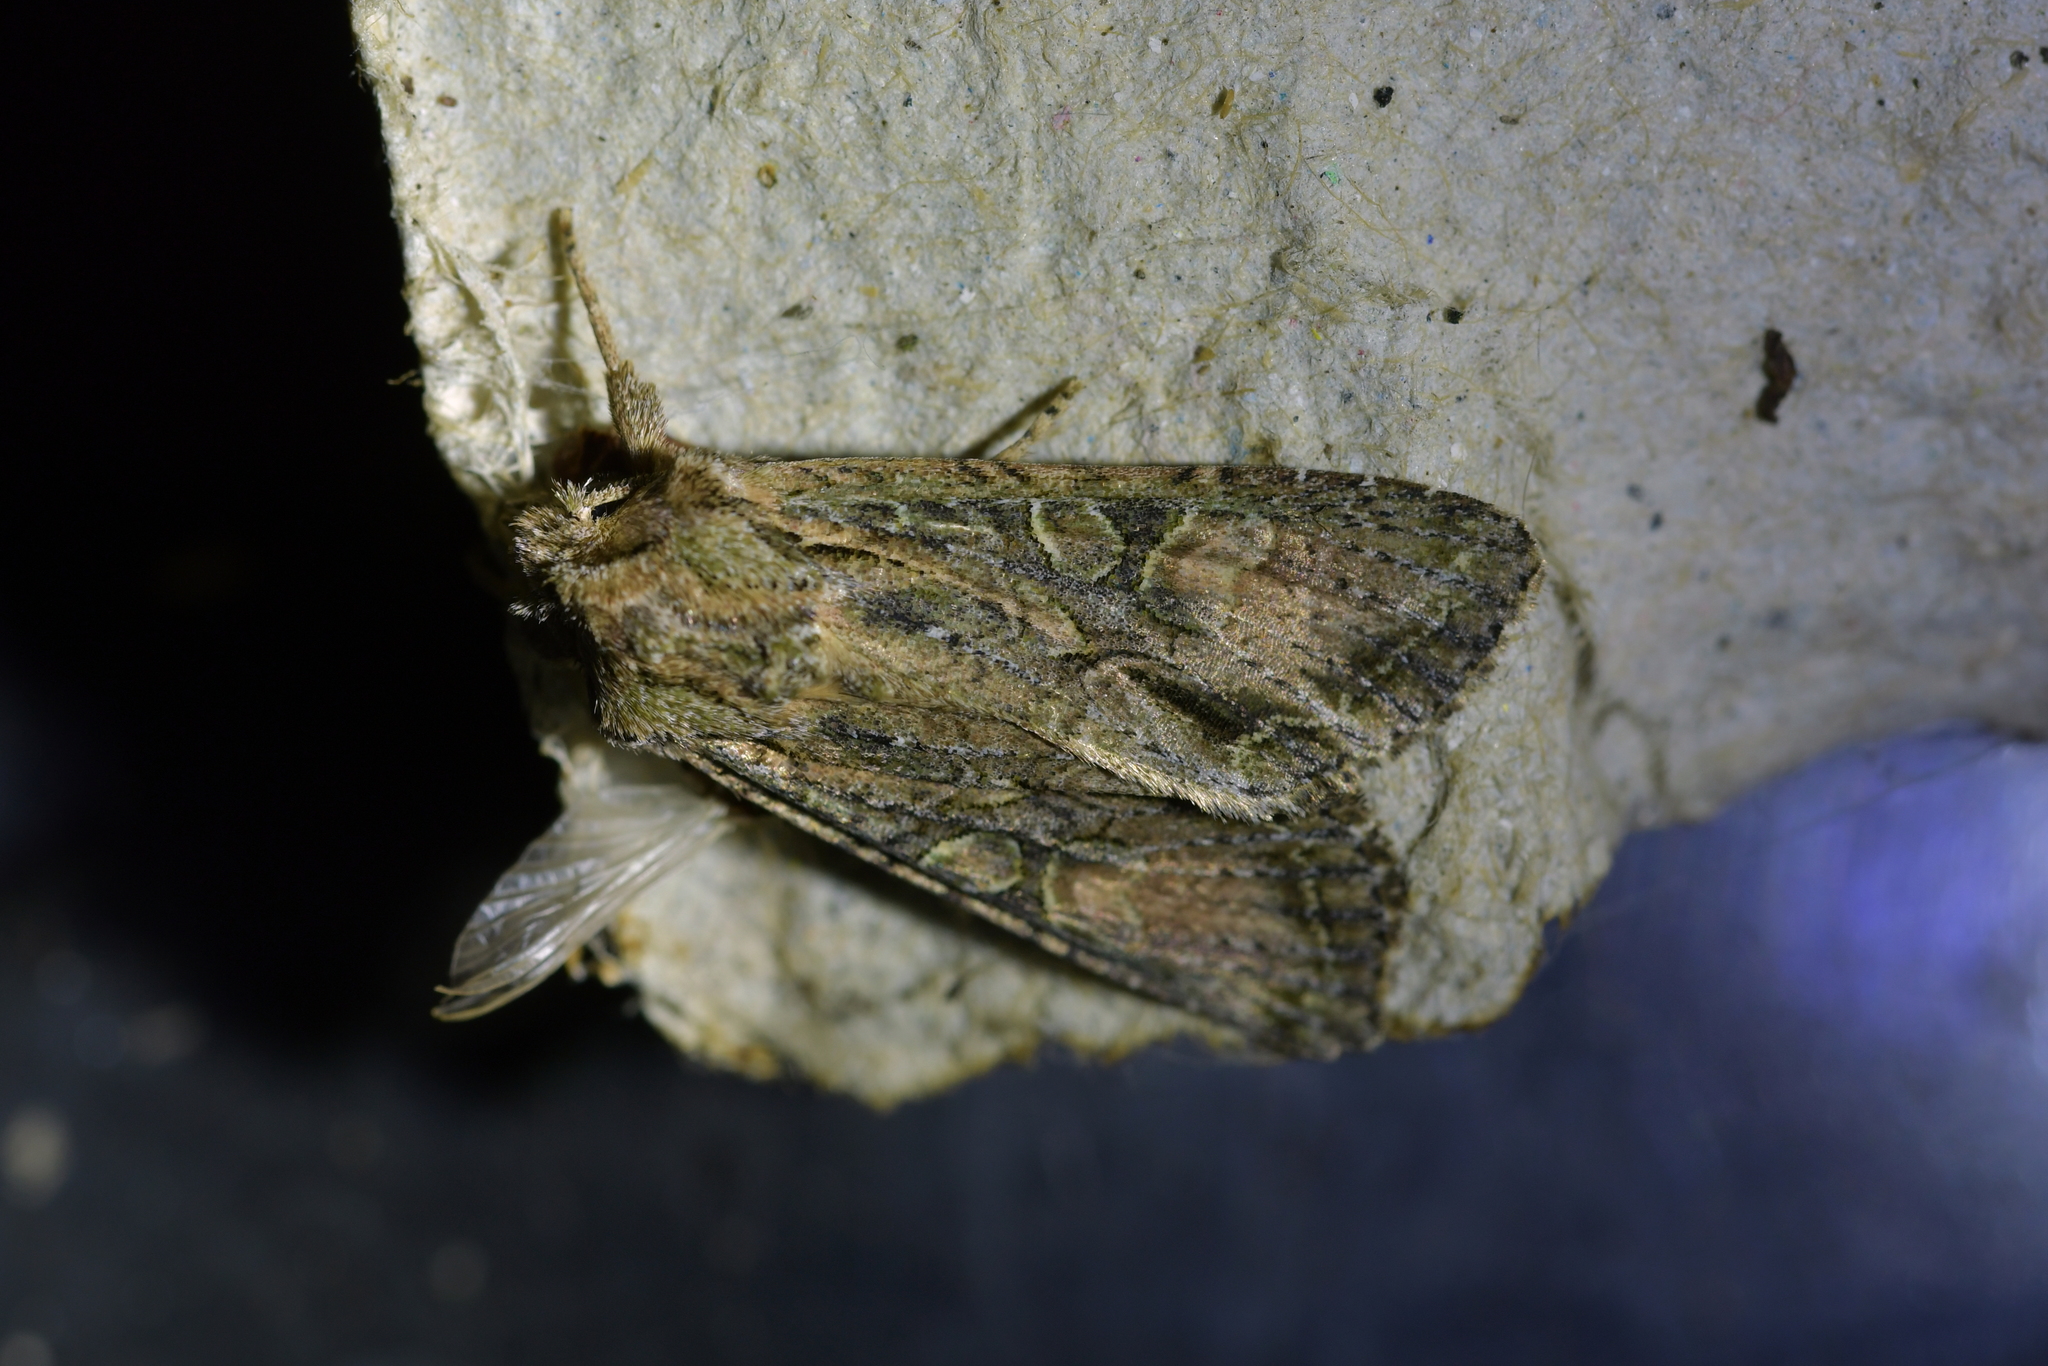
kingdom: Animalia
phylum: Arthropoda
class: Insecta
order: Lepidoptera
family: Noctuidae
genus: Ichneutica
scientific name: Ichneutica mutans
